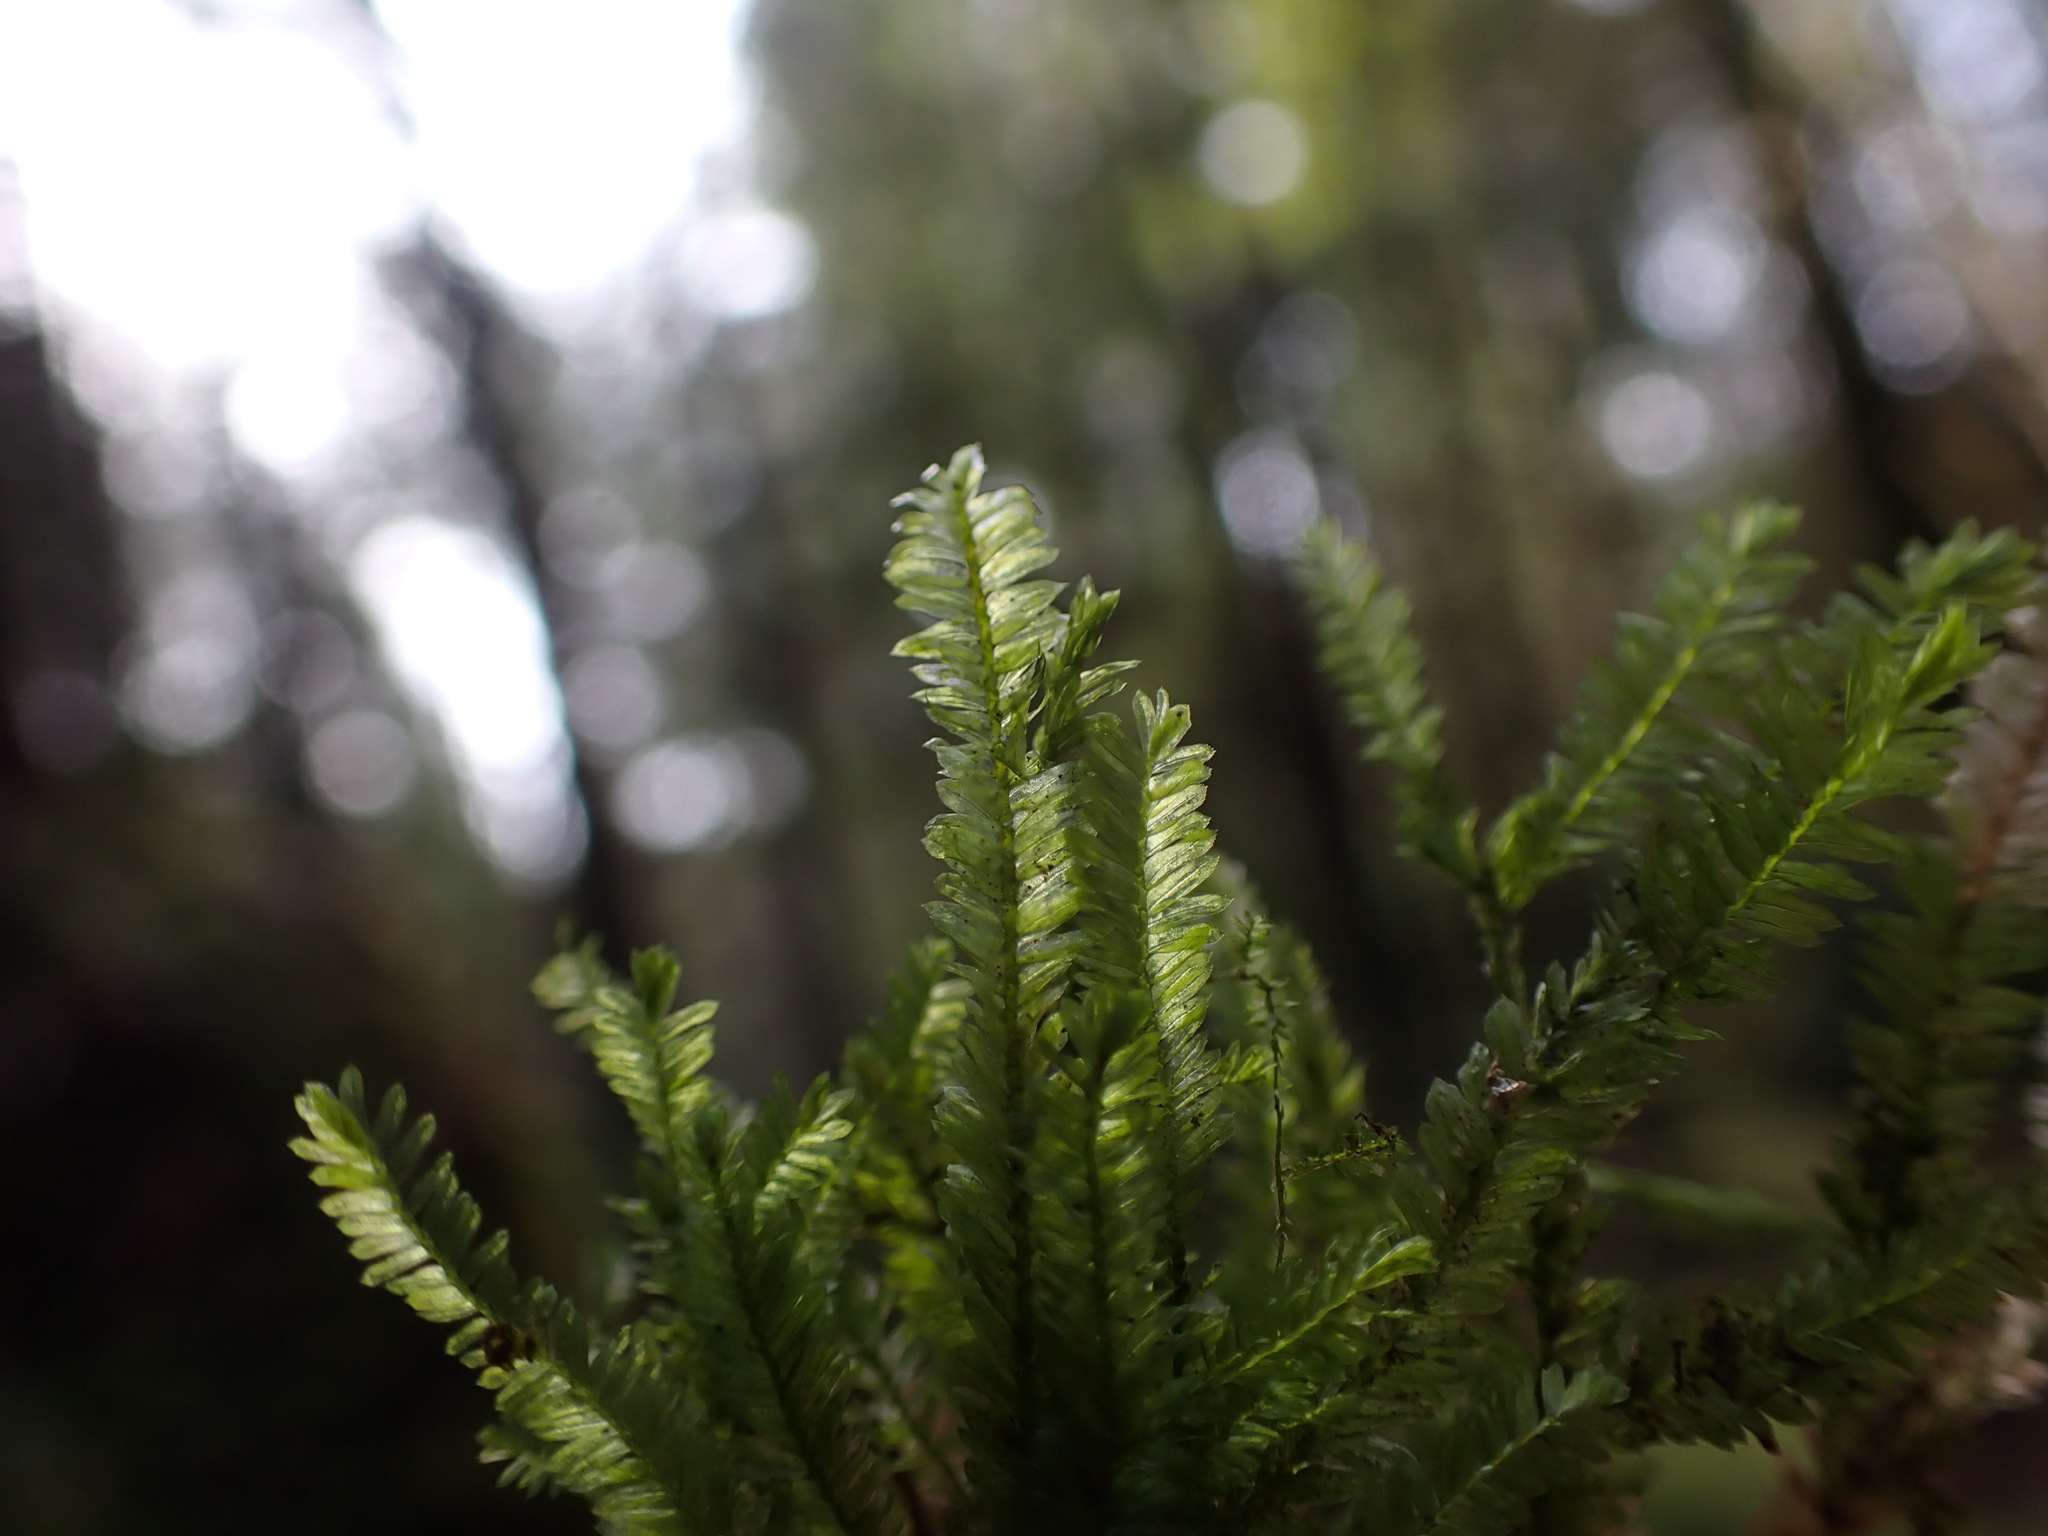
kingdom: Plantae
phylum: Bryophyta
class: Bryopsida
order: Hypnales
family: Neckeraceae
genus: Dannorrisia
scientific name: Dannorrisia bigelovii
